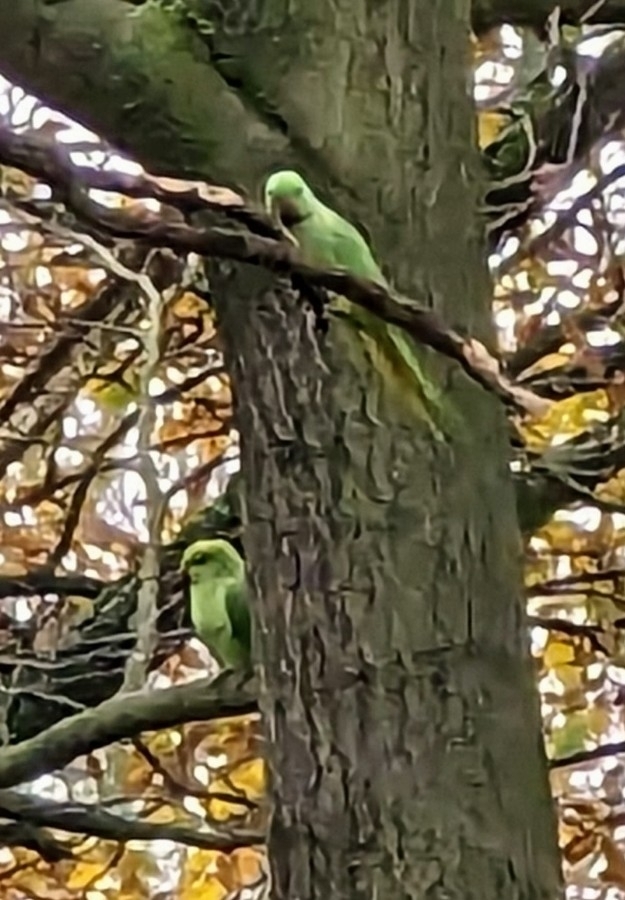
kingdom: Animalia
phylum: Chordata
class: Aves
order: Psittaciformes
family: Psittacidae
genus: Psittacula
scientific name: Psittacula krameri
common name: Rose-ringed parakeet
